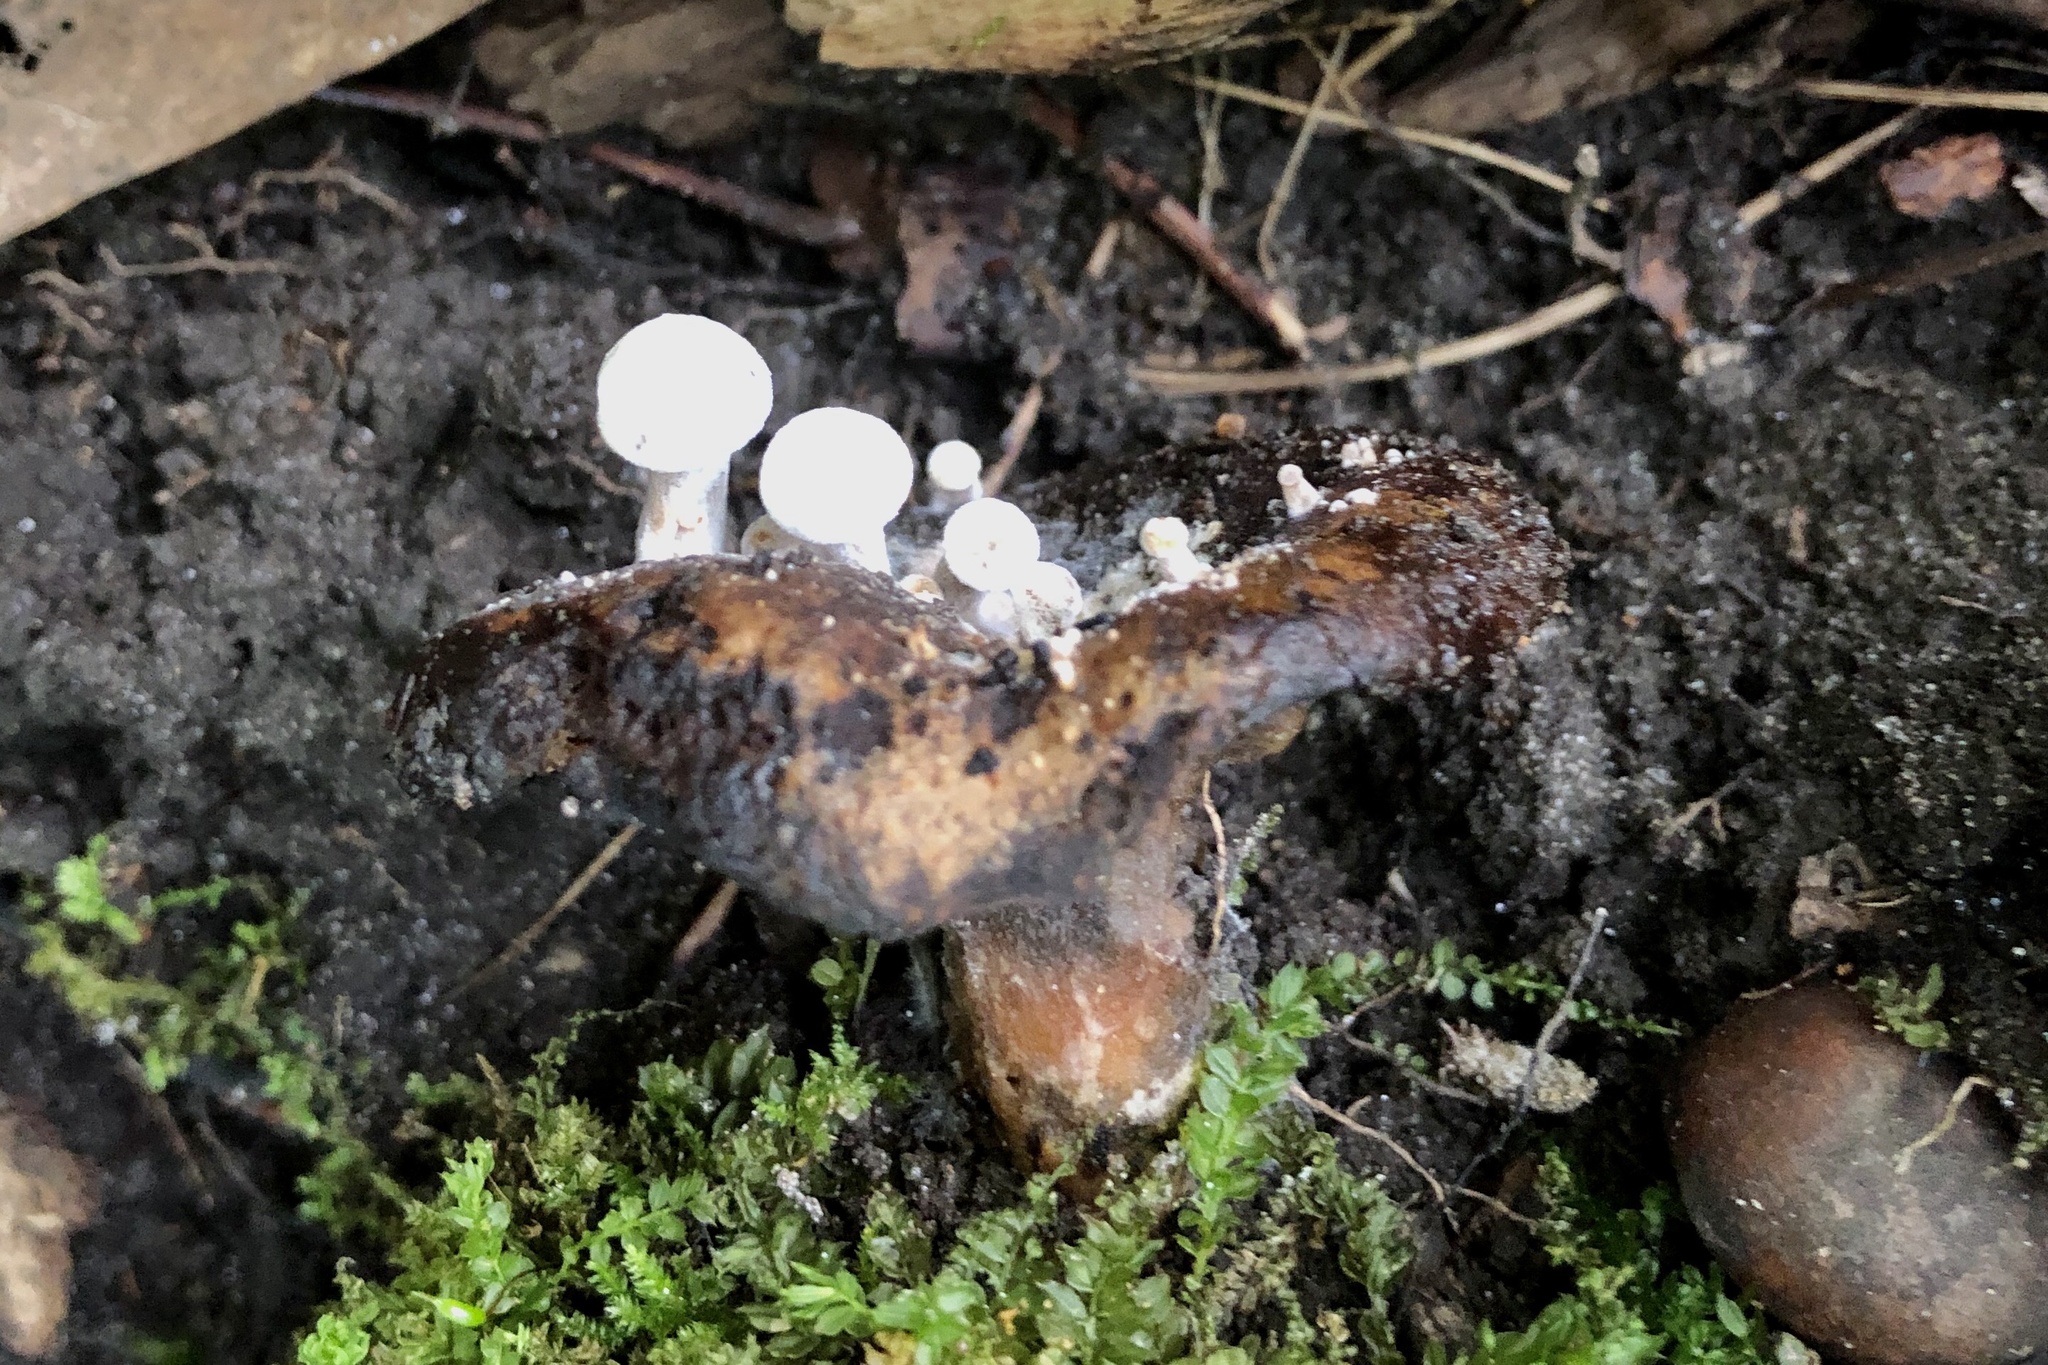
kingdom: Fungi
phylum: Basidiomycota
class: Agaricomycetes
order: Agaricales
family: Lyophyllaceae
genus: Asterophora
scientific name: Asterophora lycoperdoides
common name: Pick-a-back toadstool
